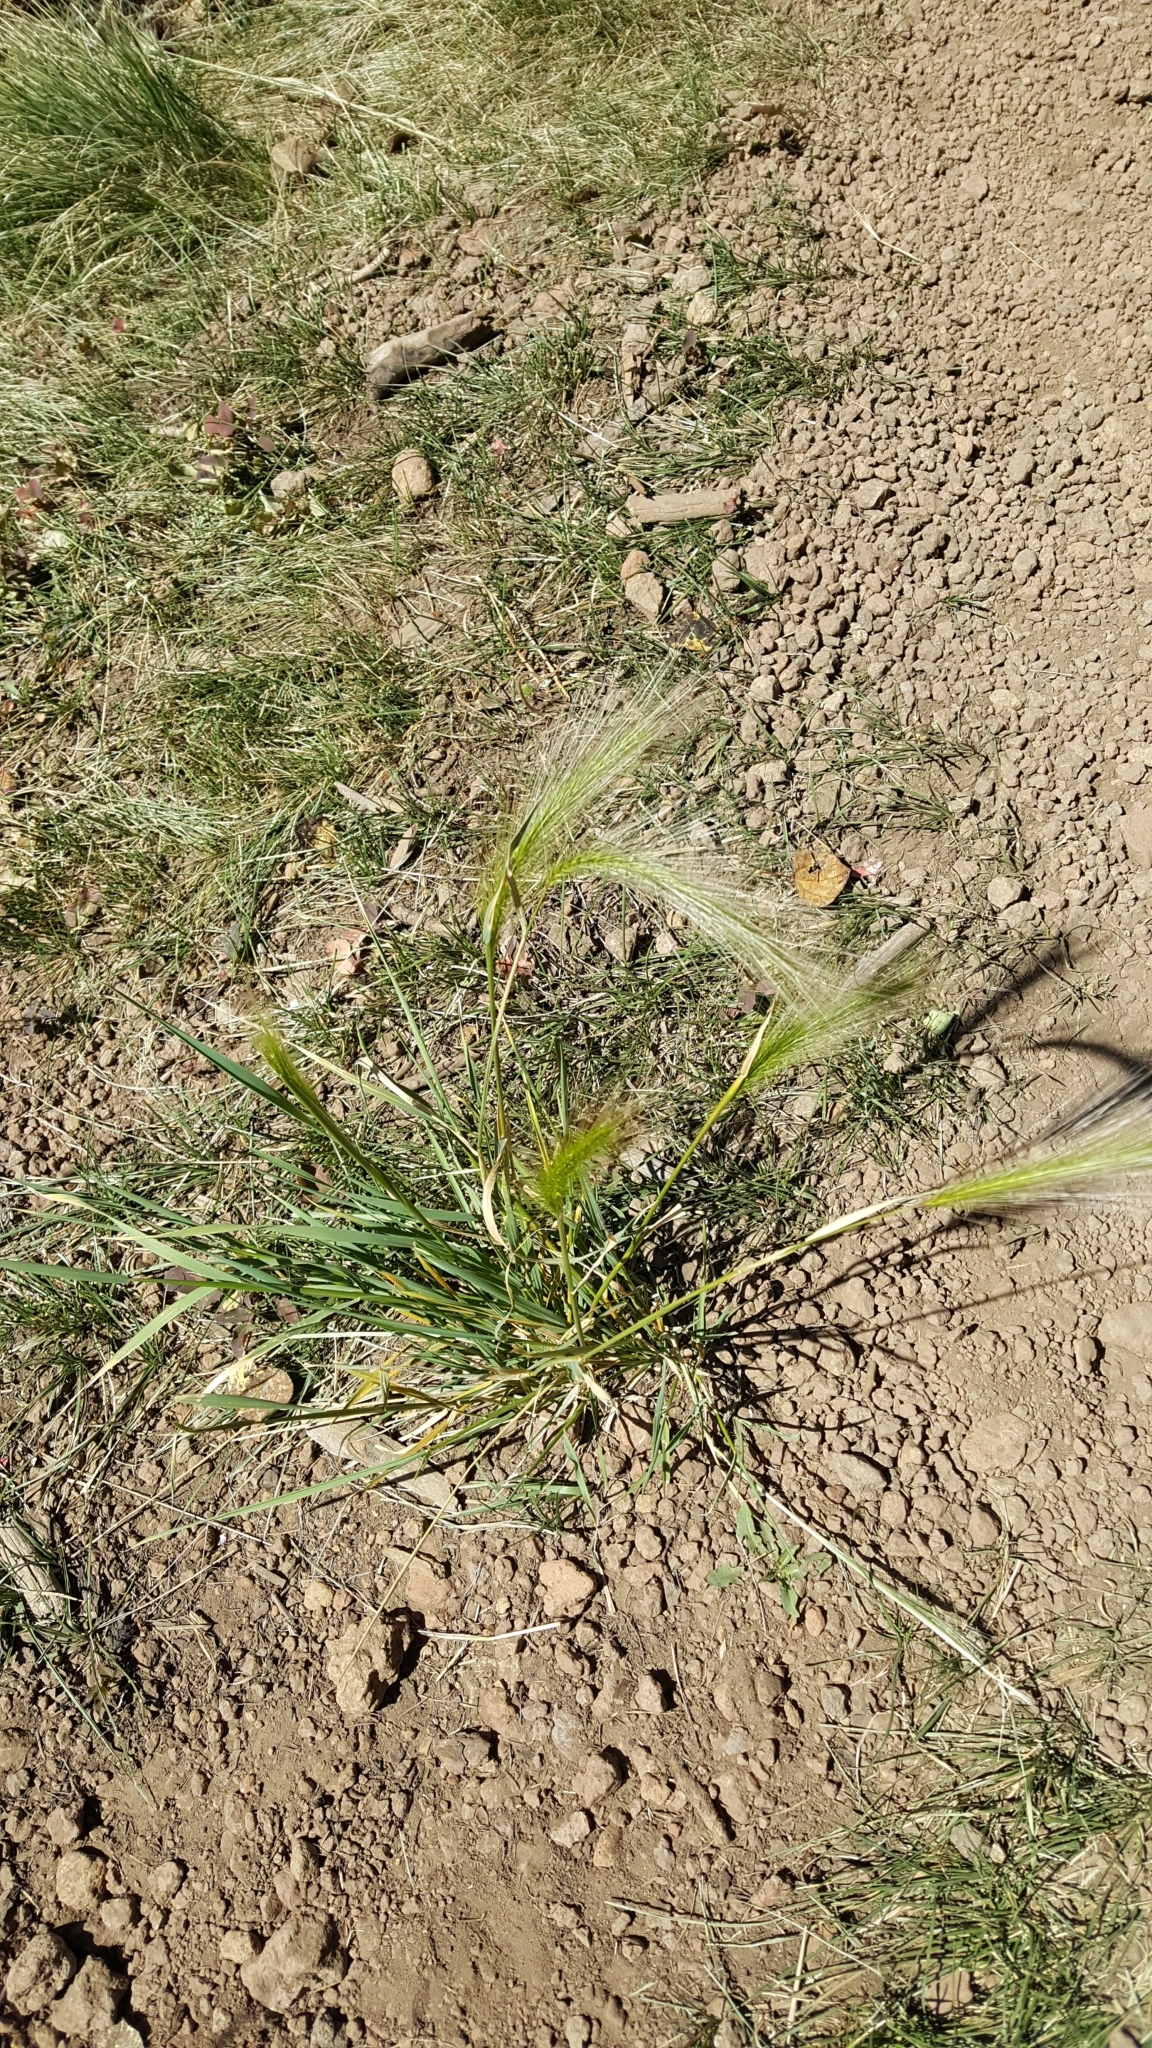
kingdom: Plantae
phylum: Tracheophyta
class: Liliopsida
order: Poales
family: Poaceae
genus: Hordeum
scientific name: Hordeum jubatum
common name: Foxtail barley
